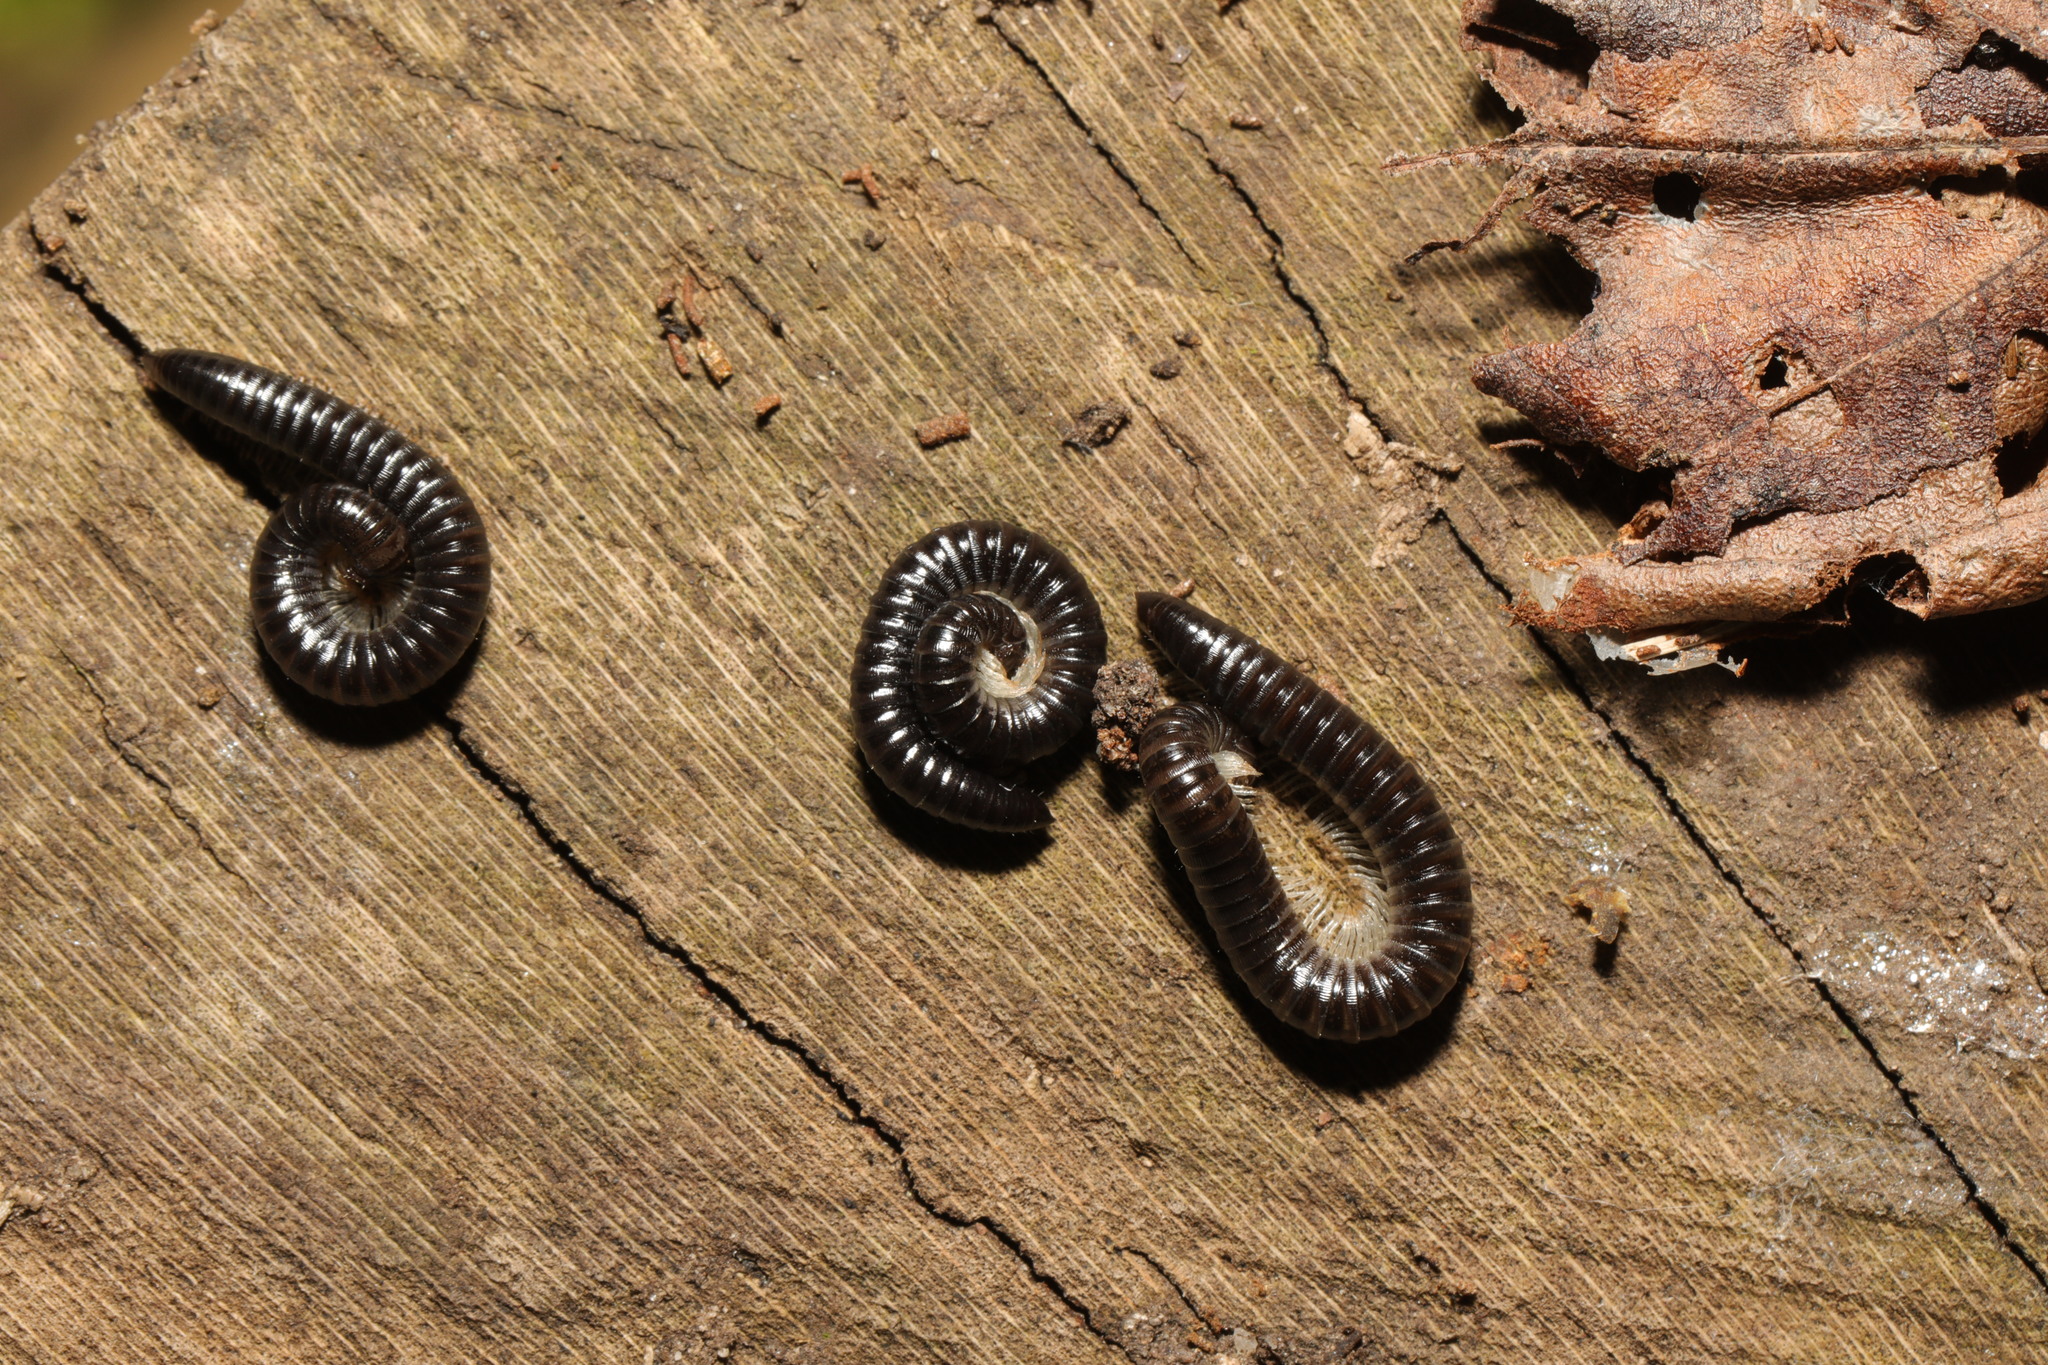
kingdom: Animalia
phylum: Arthropoda
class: Diplopoda
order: Julida
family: Julidae
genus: Tachypodoiulus
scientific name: Tachypodoiulus niger
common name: White-legged snake millipede
